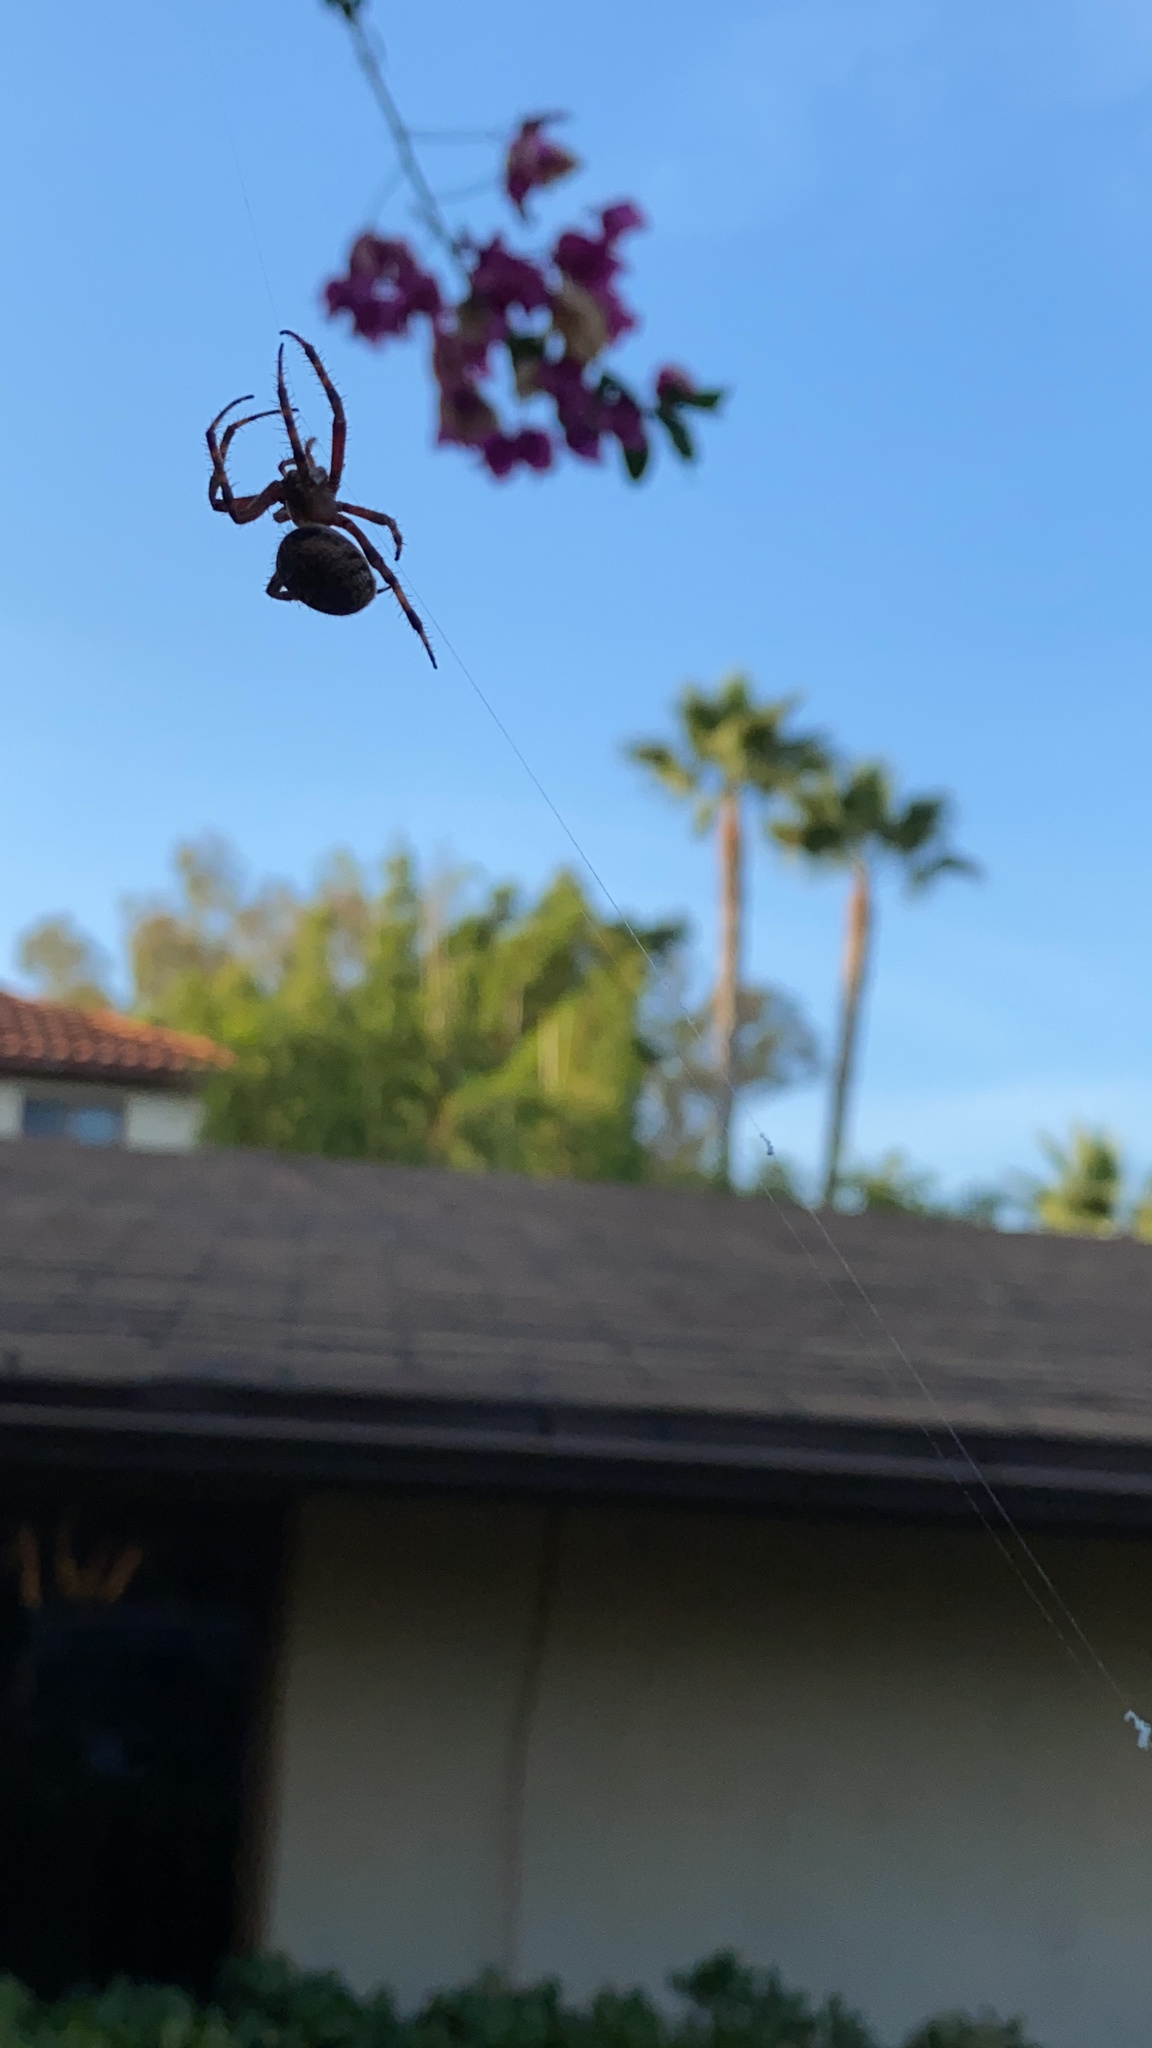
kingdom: Animalia
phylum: Arthropoda
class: Arachnida
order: Araneae
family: Araneidae
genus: Neoscona
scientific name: Neoscona crucifera
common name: Spotted orbweaver
